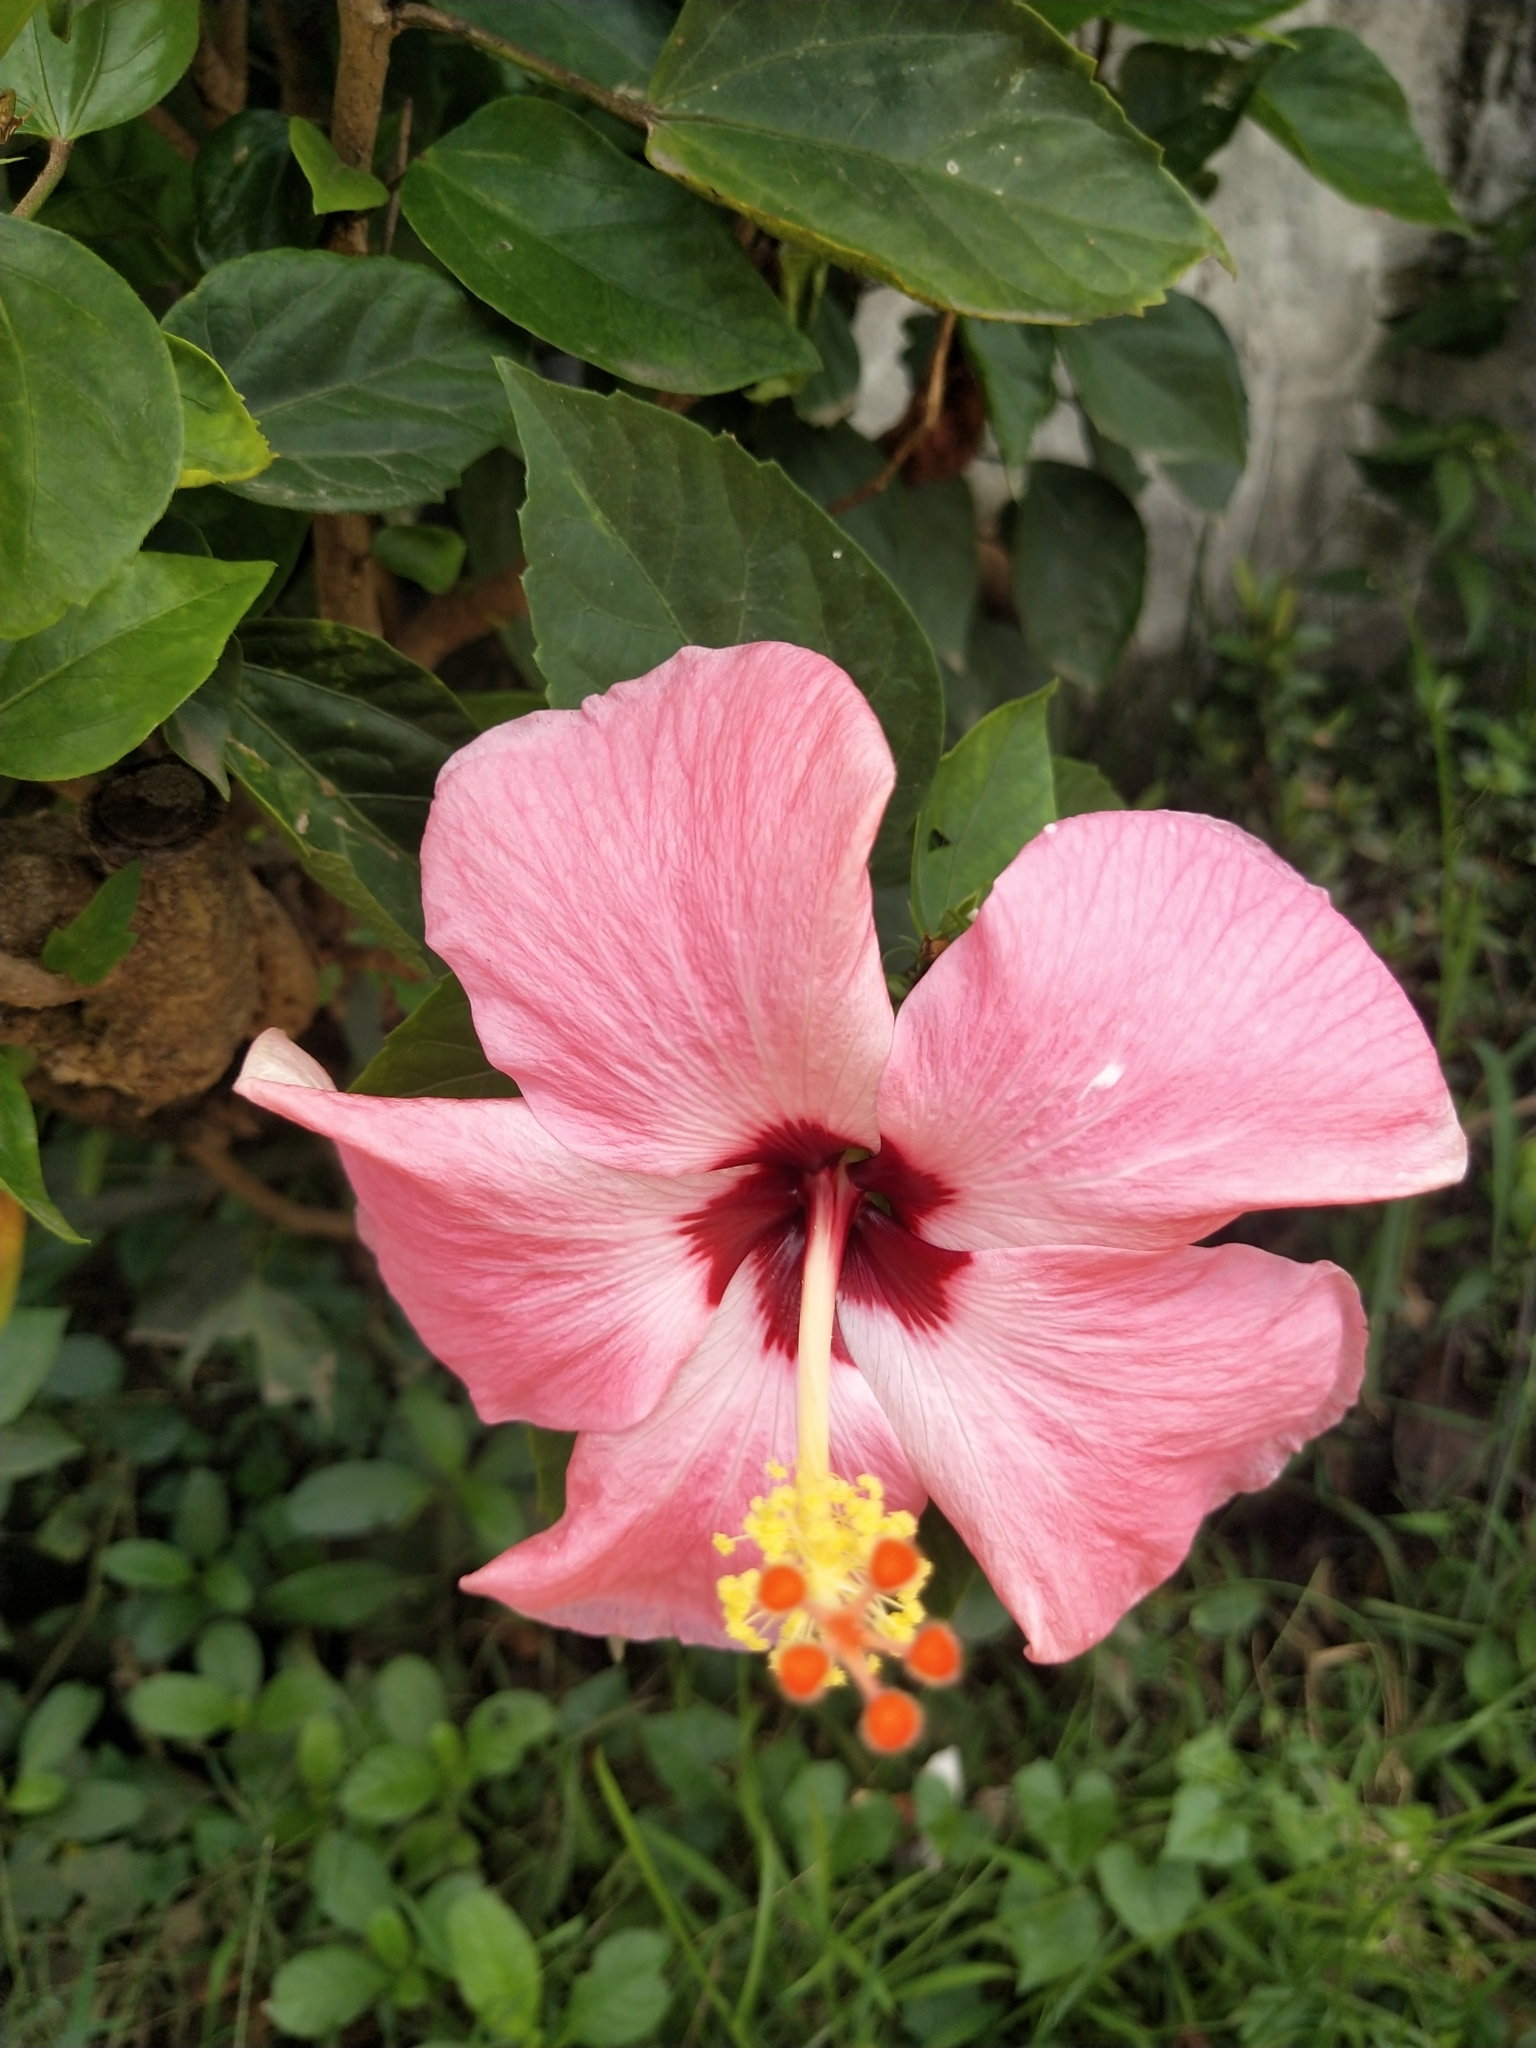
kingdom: Plantae
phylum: Tracheophyta
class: Magnoliopsida
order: Malvales
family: Malvaceae
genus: Hibiscus
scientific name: Hibiscus rosa-sinensis
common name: Hibiscus
